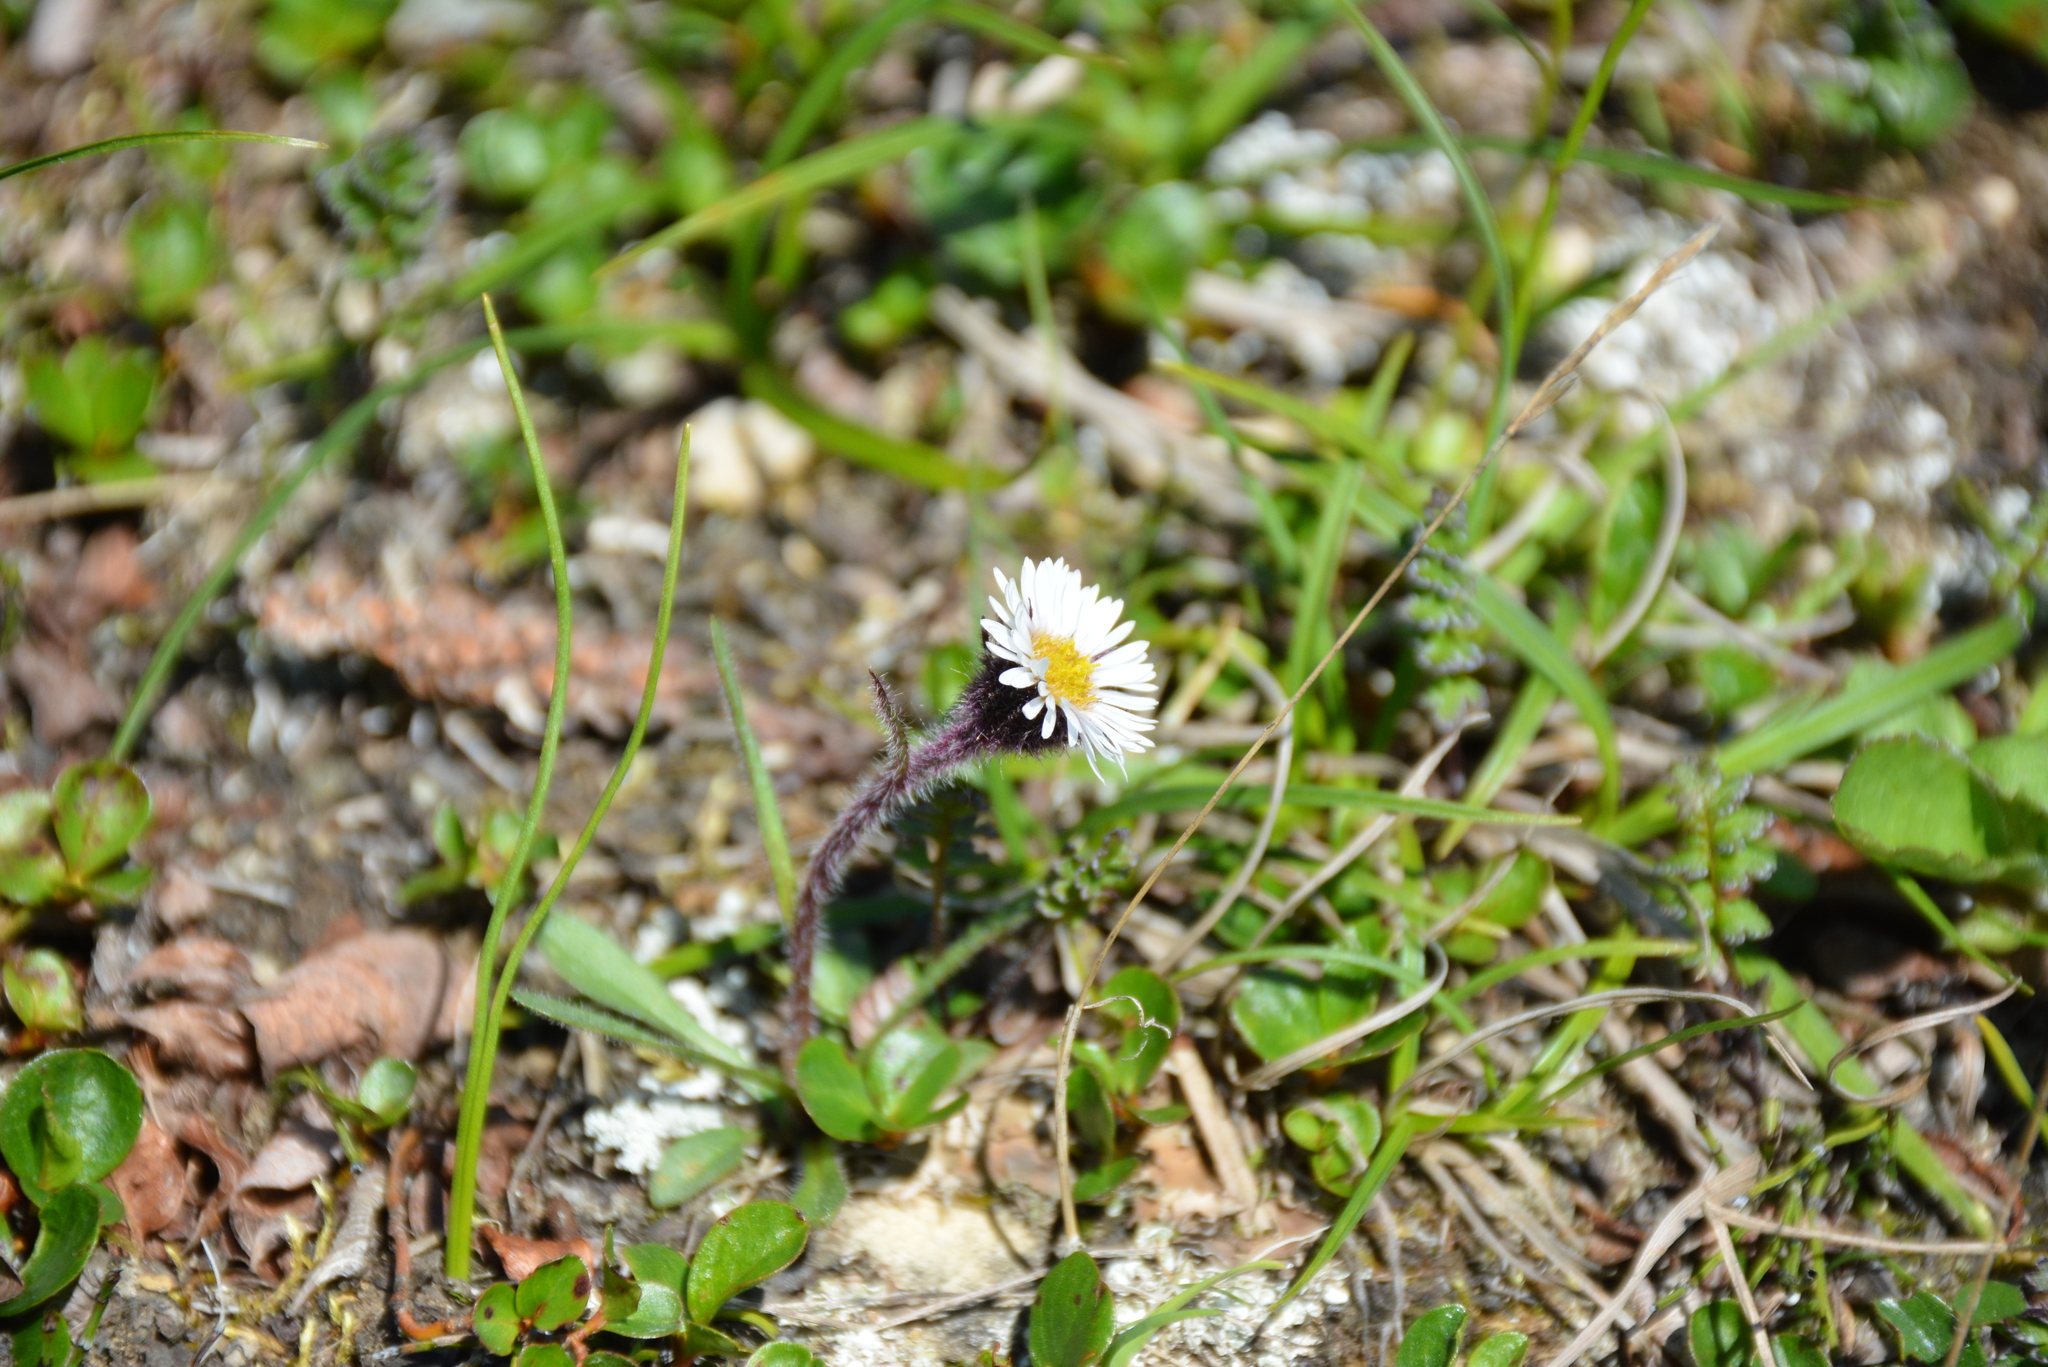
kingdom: Plantae
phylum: Tracheophyta
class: Magnoliopsida
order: Asterales
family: Asteraceae
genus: Erigeron
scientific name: Erigeron humilis
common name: Arctic-alpine fleabane
